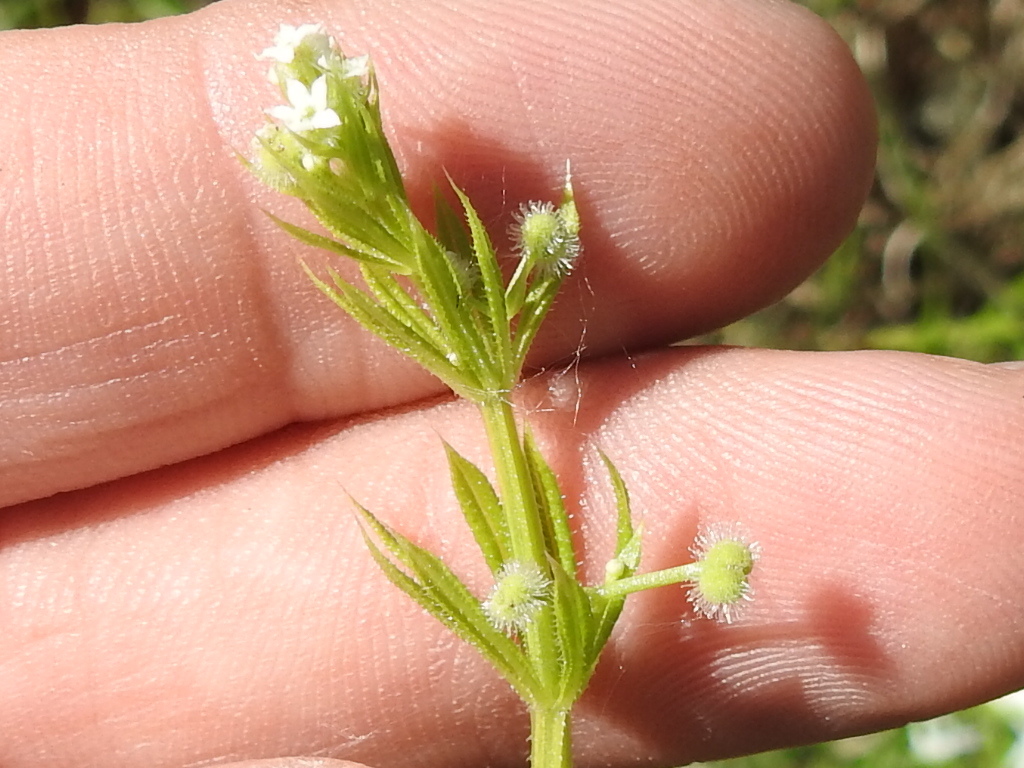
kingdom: Plantae
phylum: Tracheophyta
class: Magnoliopsida
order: Gentianales
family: Rubiaceae
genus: Galium
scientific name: Galium aparine
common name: Cleavers
